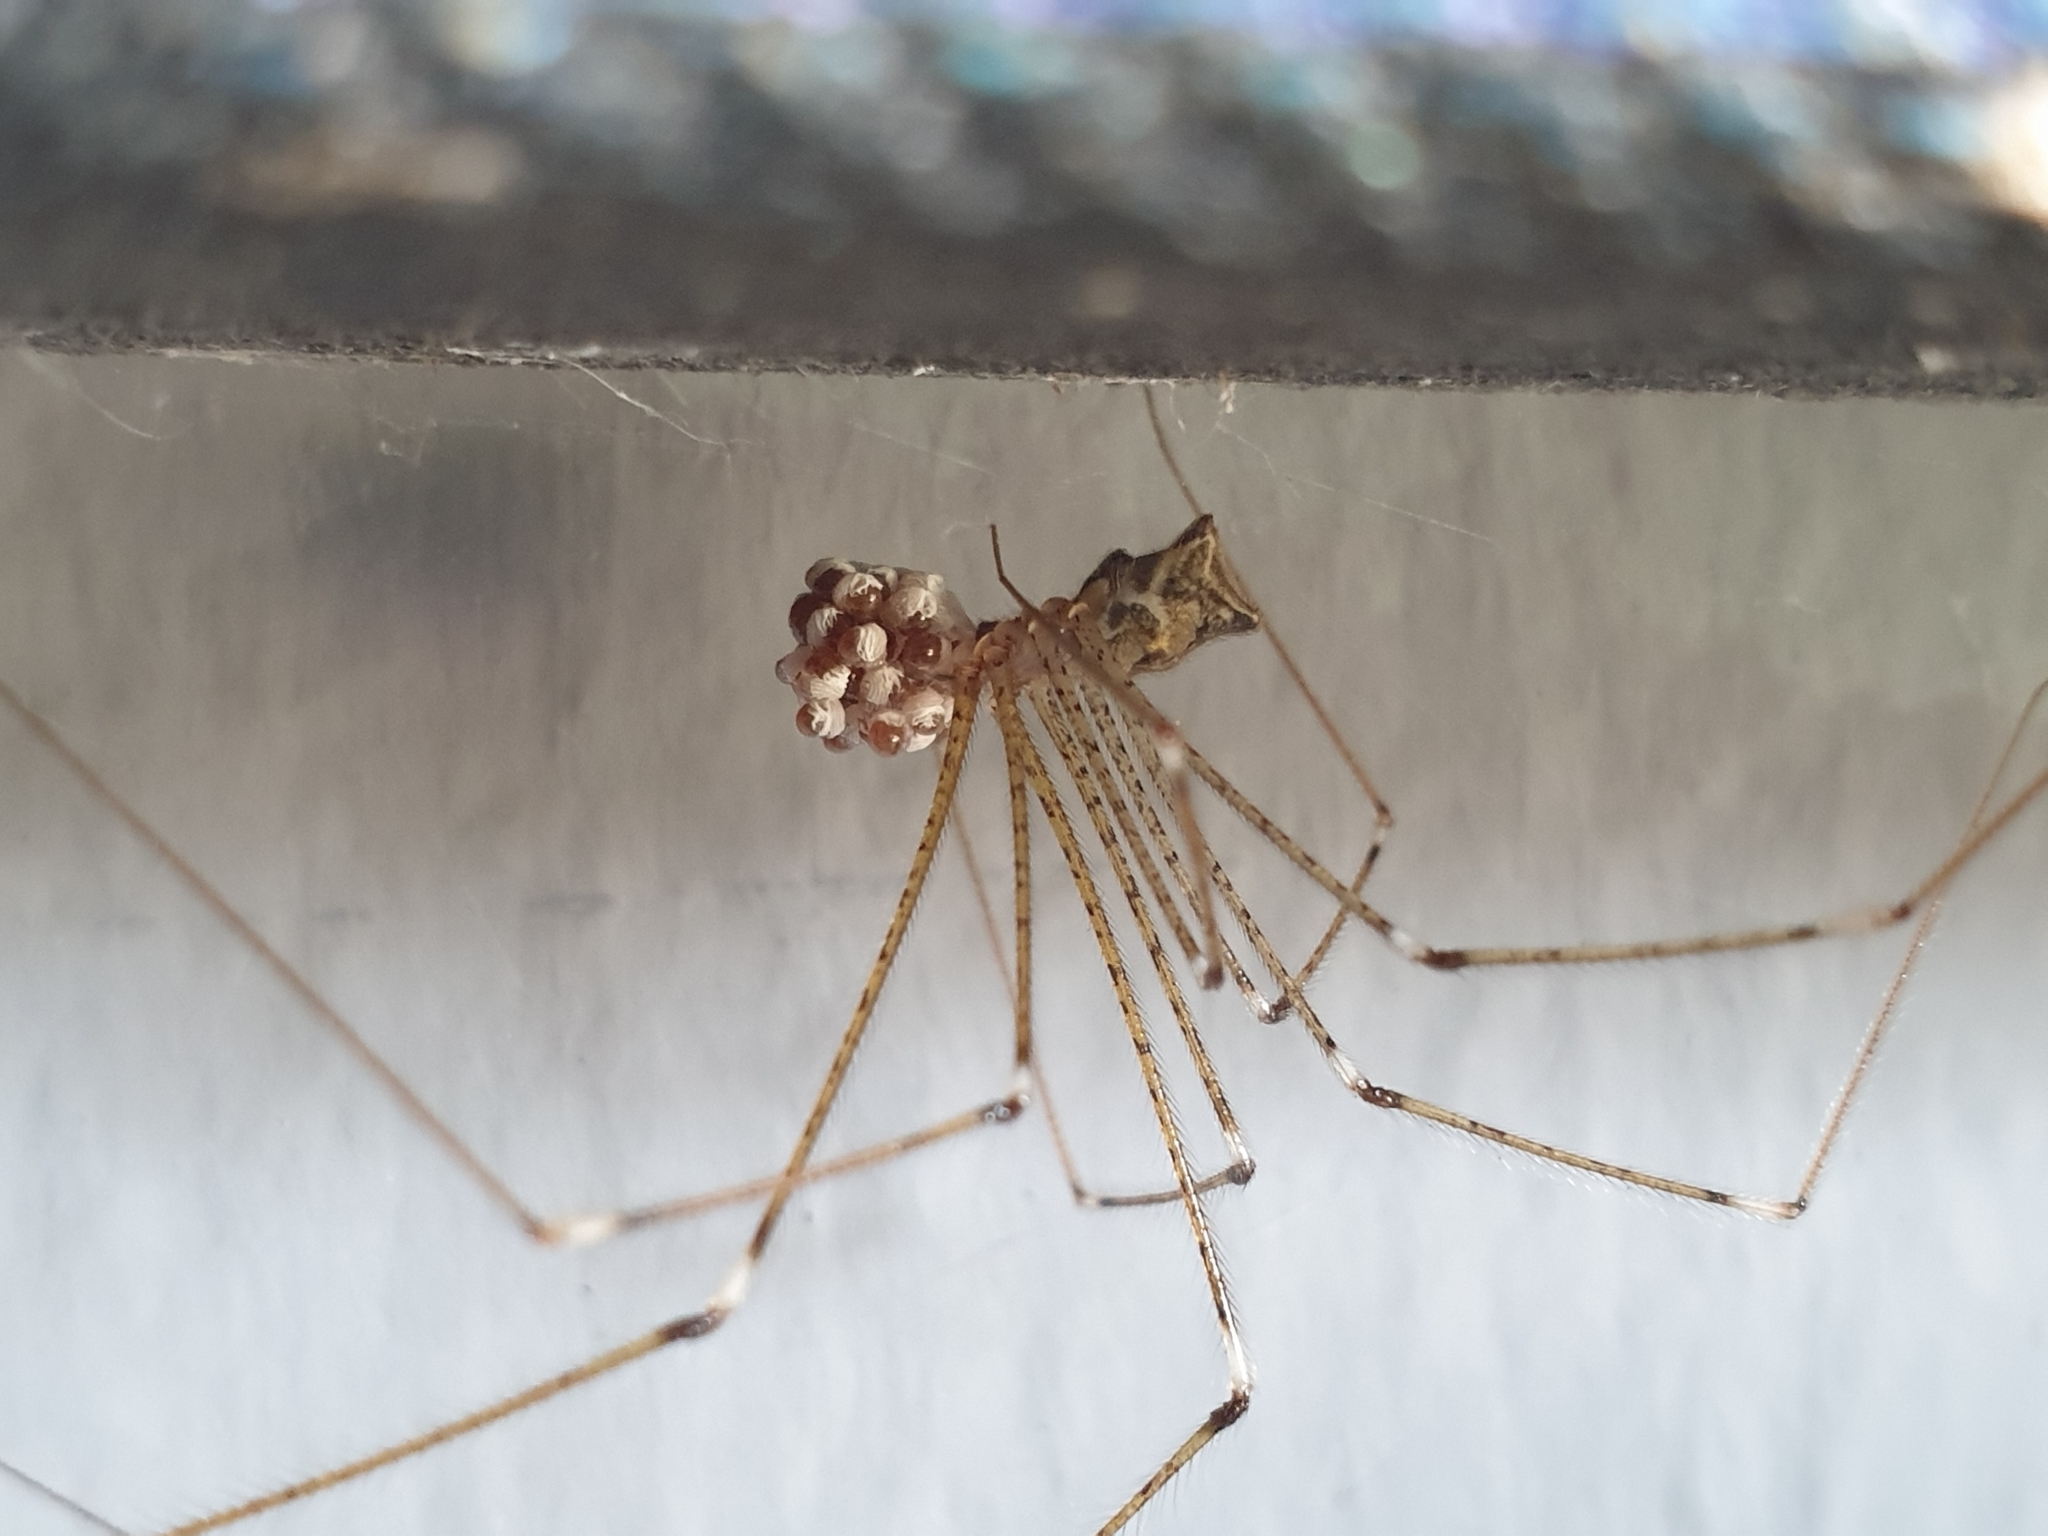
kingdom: Animalia
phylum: Arthropoda
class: Arachnida
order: Araneae
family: Pholcidae
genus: Crossopriza
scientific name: Crossopriza lyoni
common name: Cellar spiders
